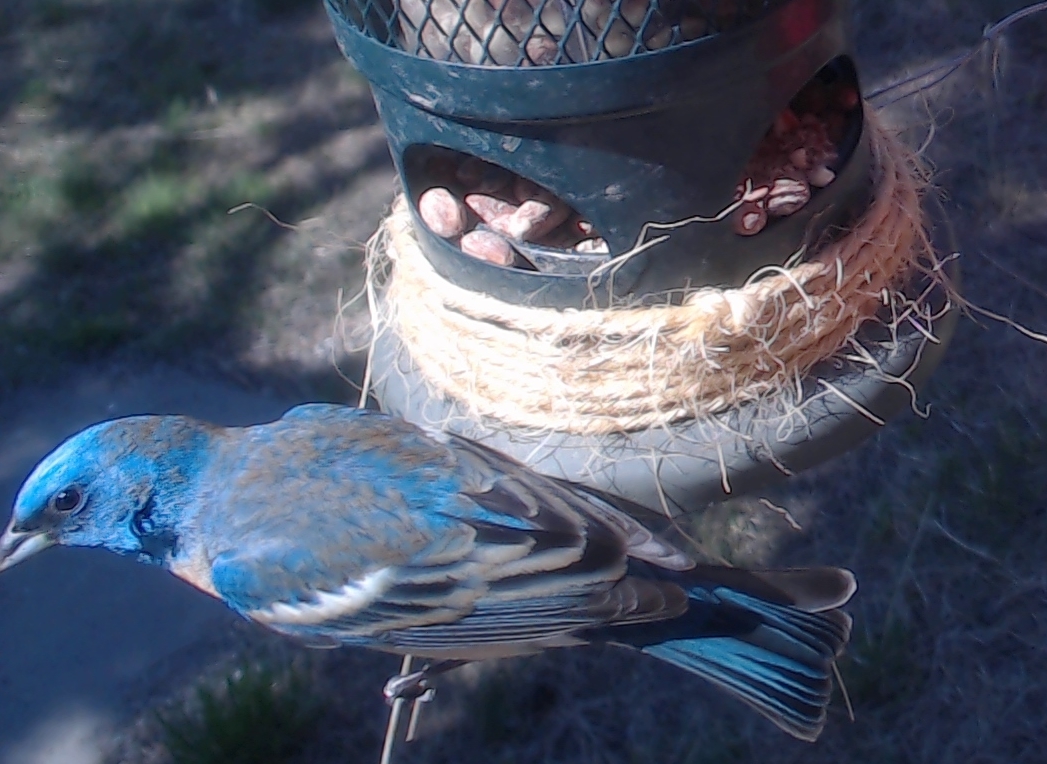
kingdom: Animalia
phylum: Chordata
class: Aves
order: Passeriformes
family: Cardinalidae
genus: Passerina
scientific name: Passerina amoena
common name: Lazuli bunting
